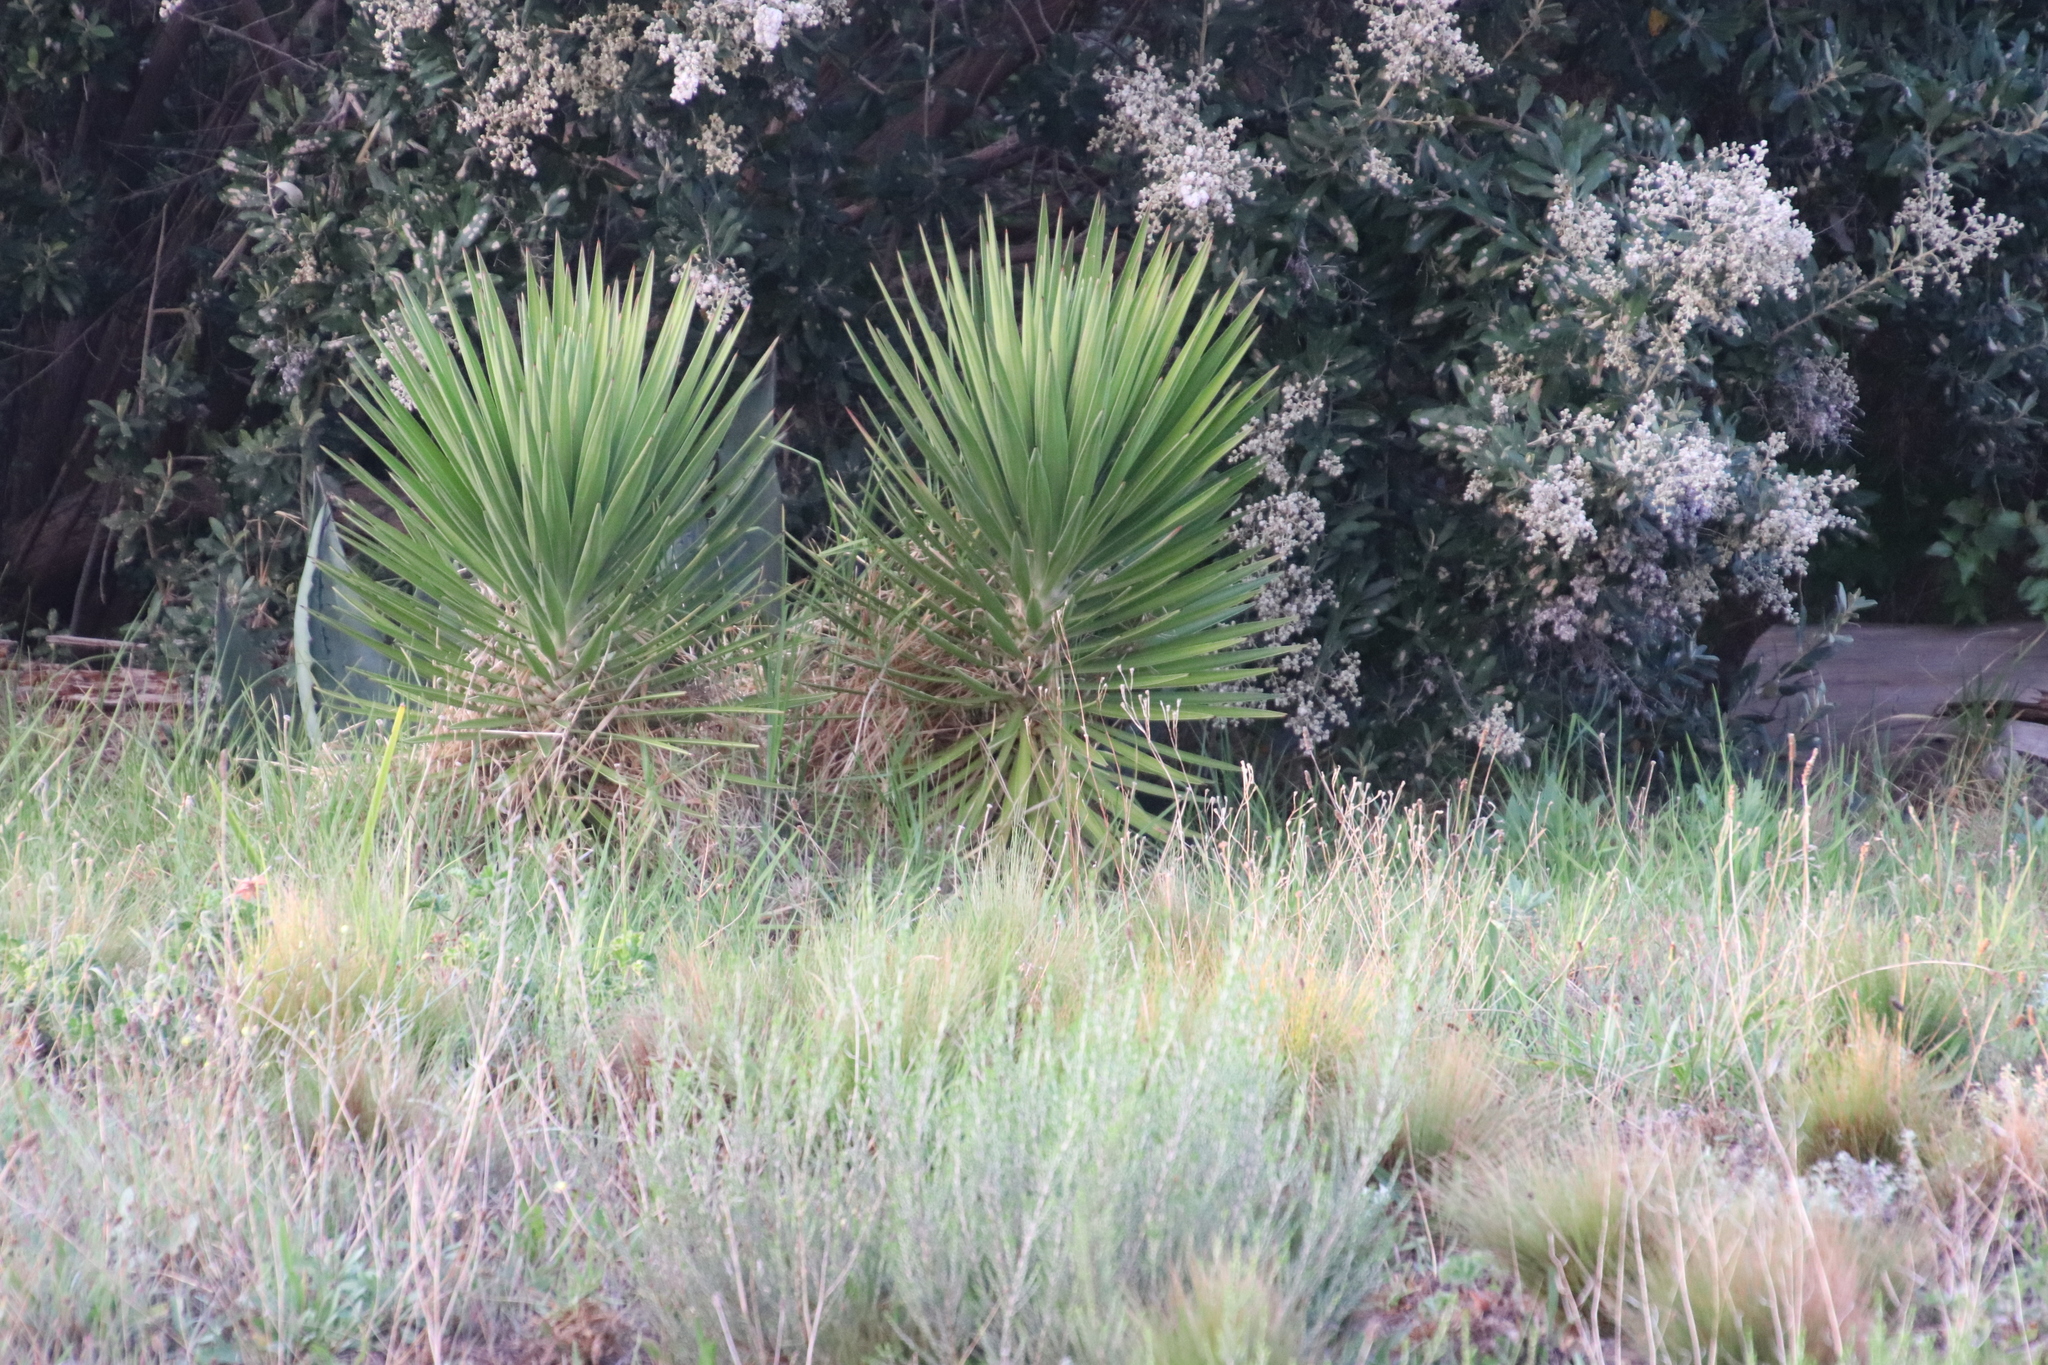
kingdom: Plantae
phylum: Tracheophyta
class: Liliopsida
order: Asparagales
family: Asparagaceae
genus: Yucca
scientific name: Yucca aloifolia
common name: Aloe yucca
